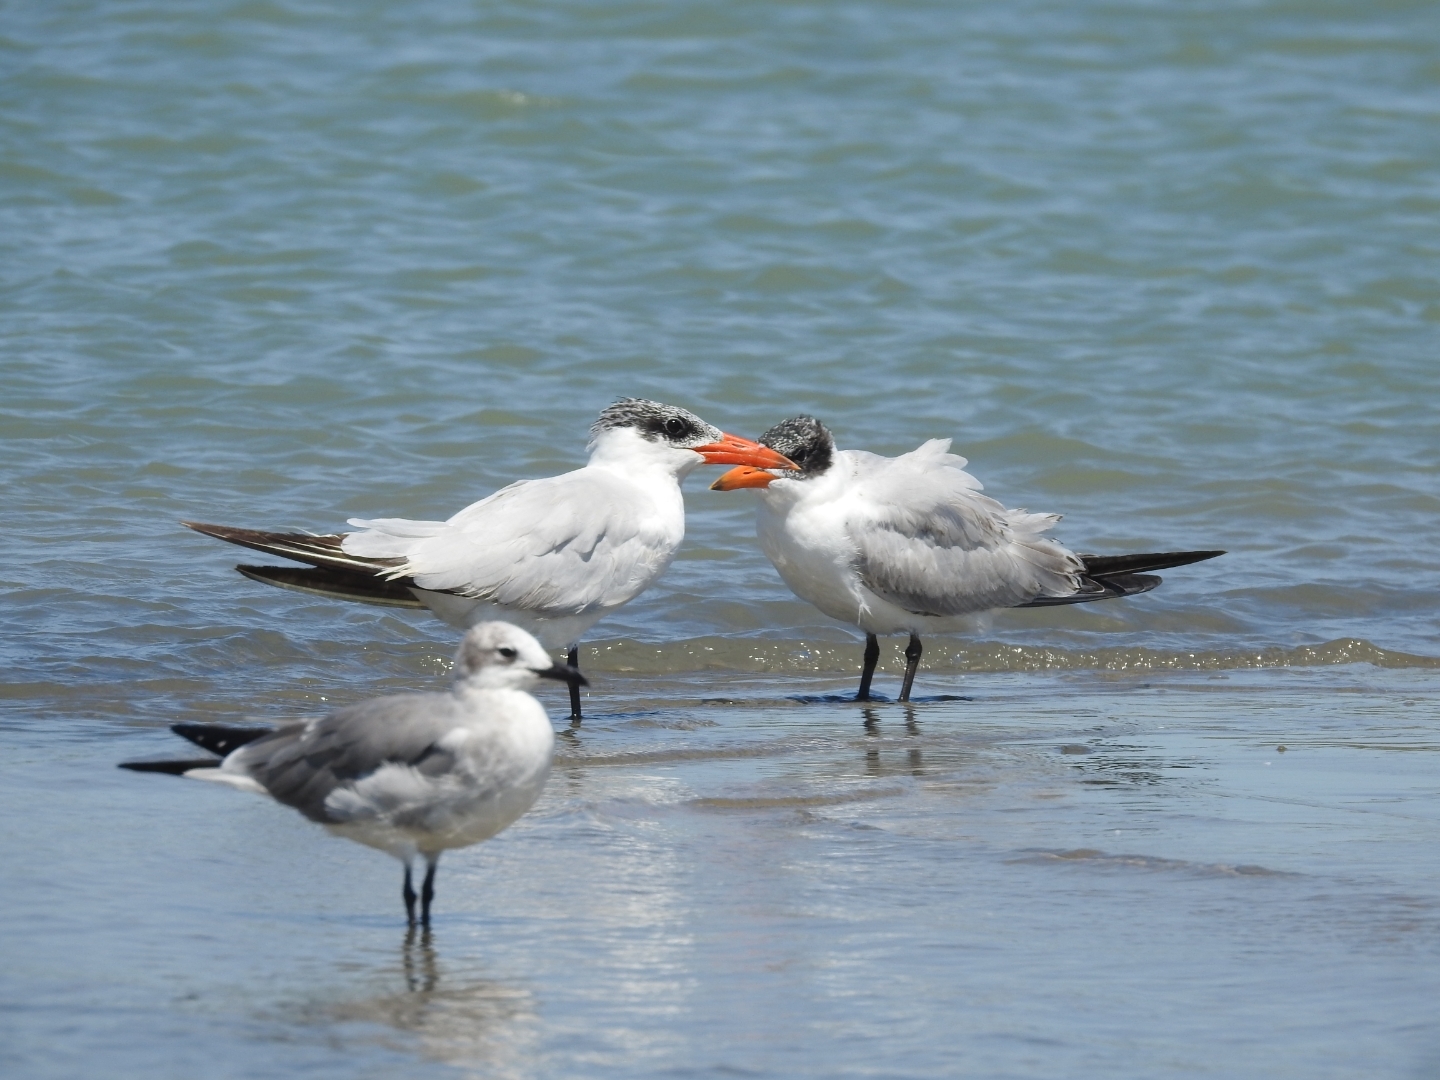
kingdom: Animalia
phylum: Chordata
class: Aves
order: Charadriiformes
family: Laridae
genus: Hydroprogne
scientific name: Hydroprogne caspia
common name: Caspian tern
